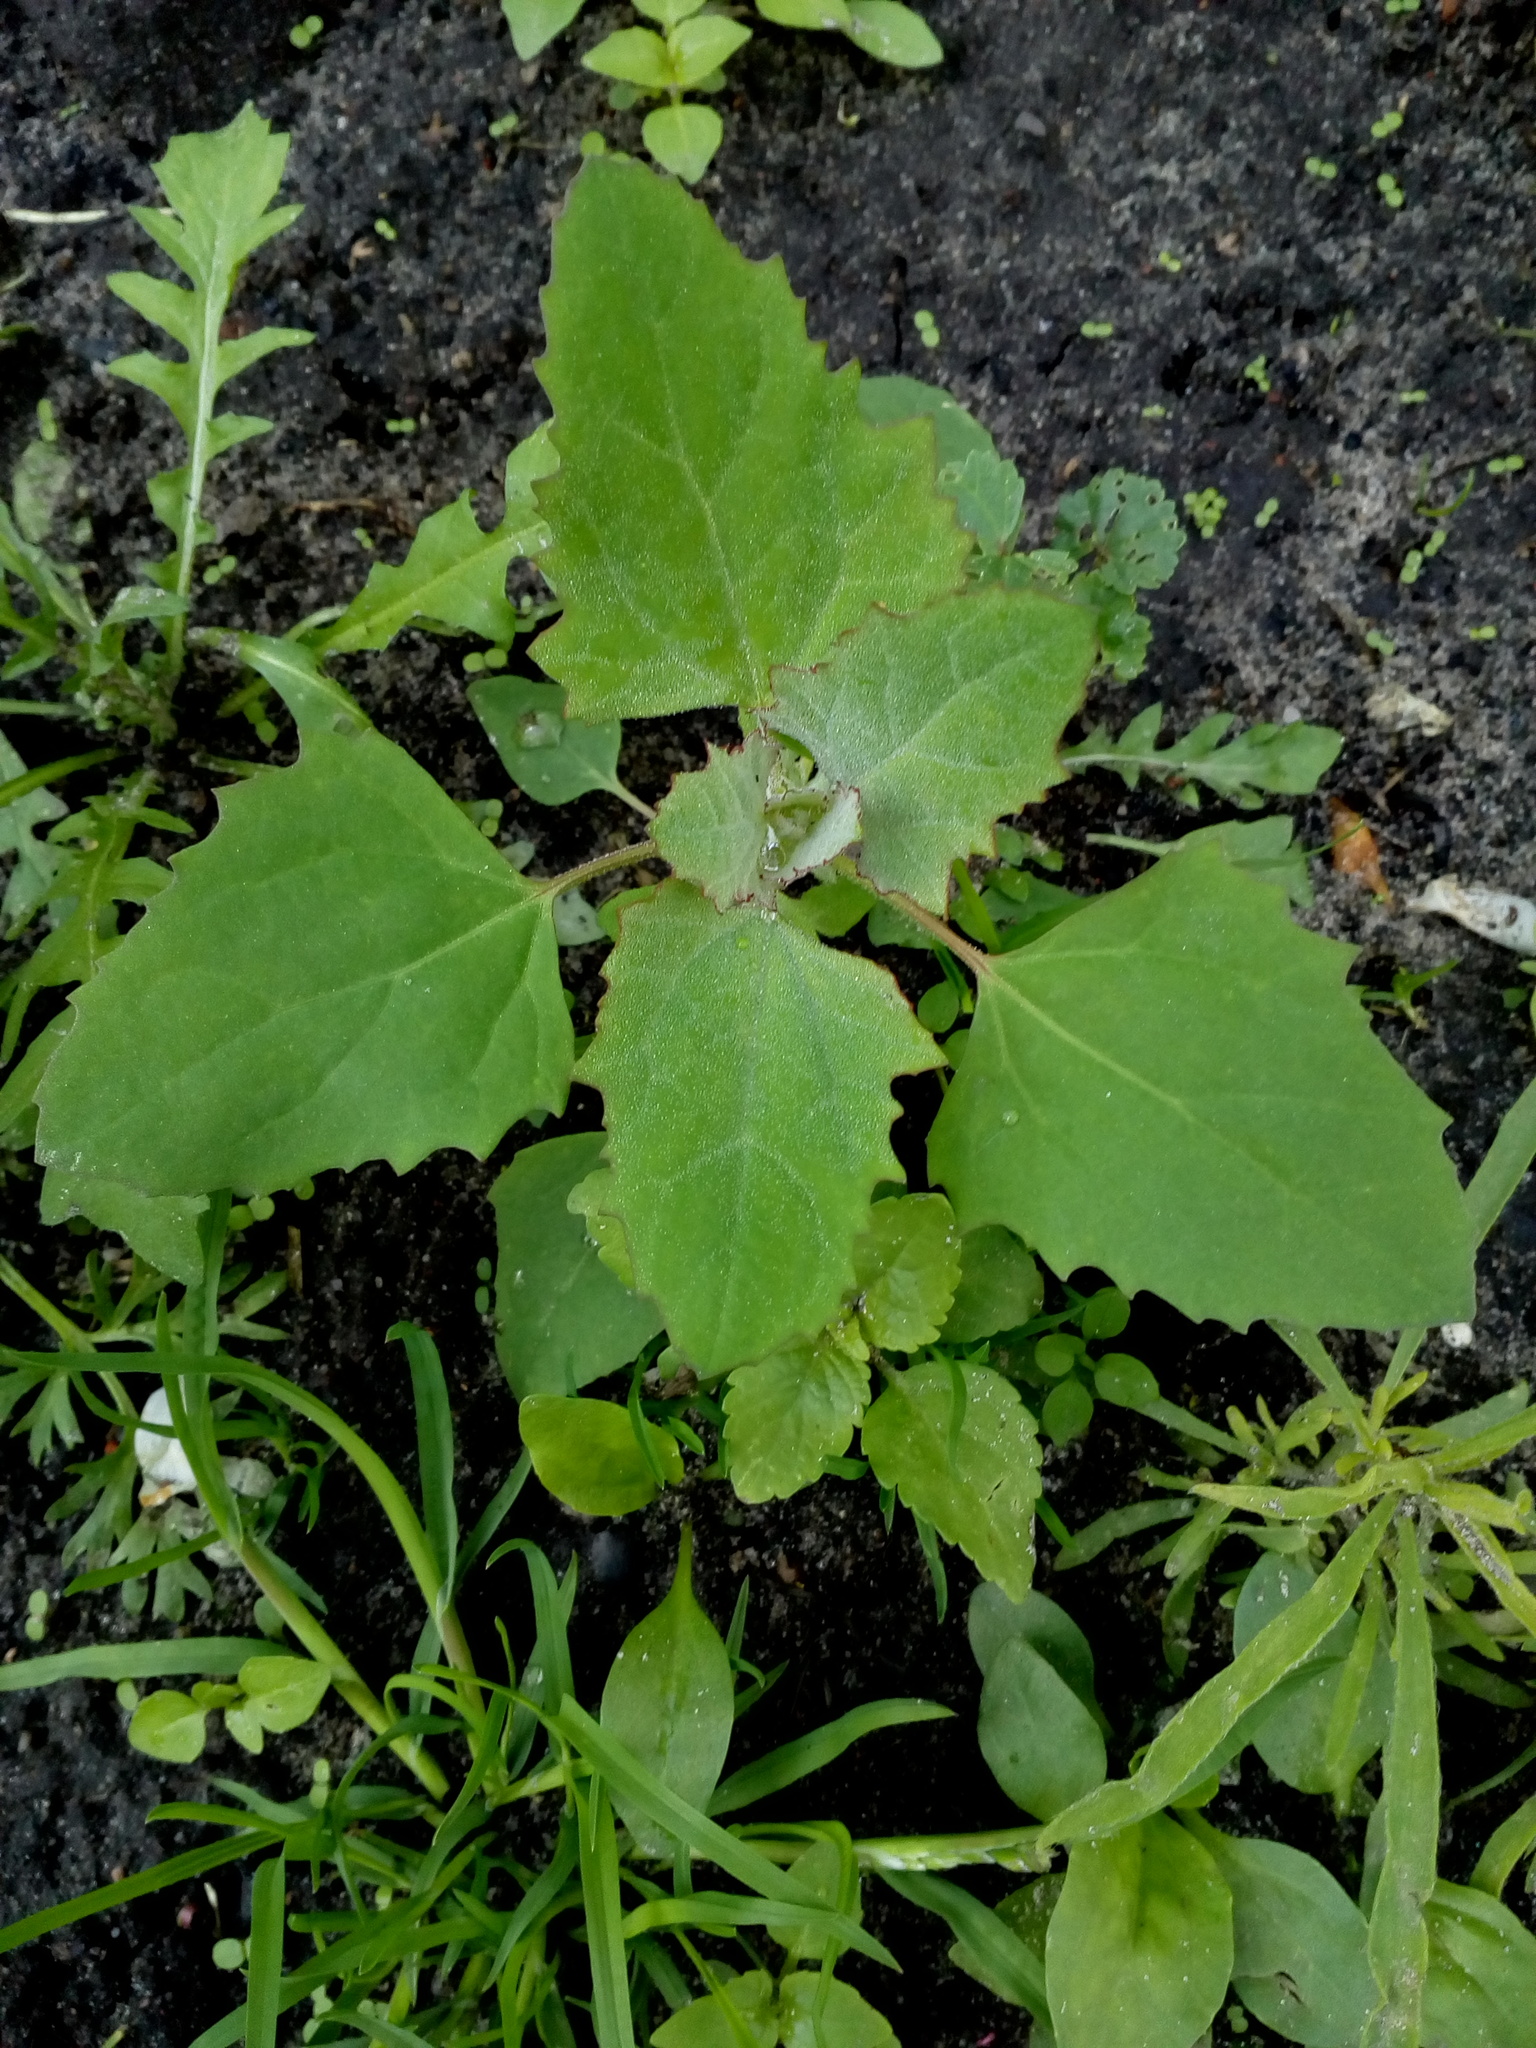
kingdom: Plantae
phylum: Tracheophyta
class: Magnoliopsida
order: Caryophyllales
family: Amaranthaceae
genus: Chenopodium
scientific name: Chenopodium album
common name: Fat-hen
